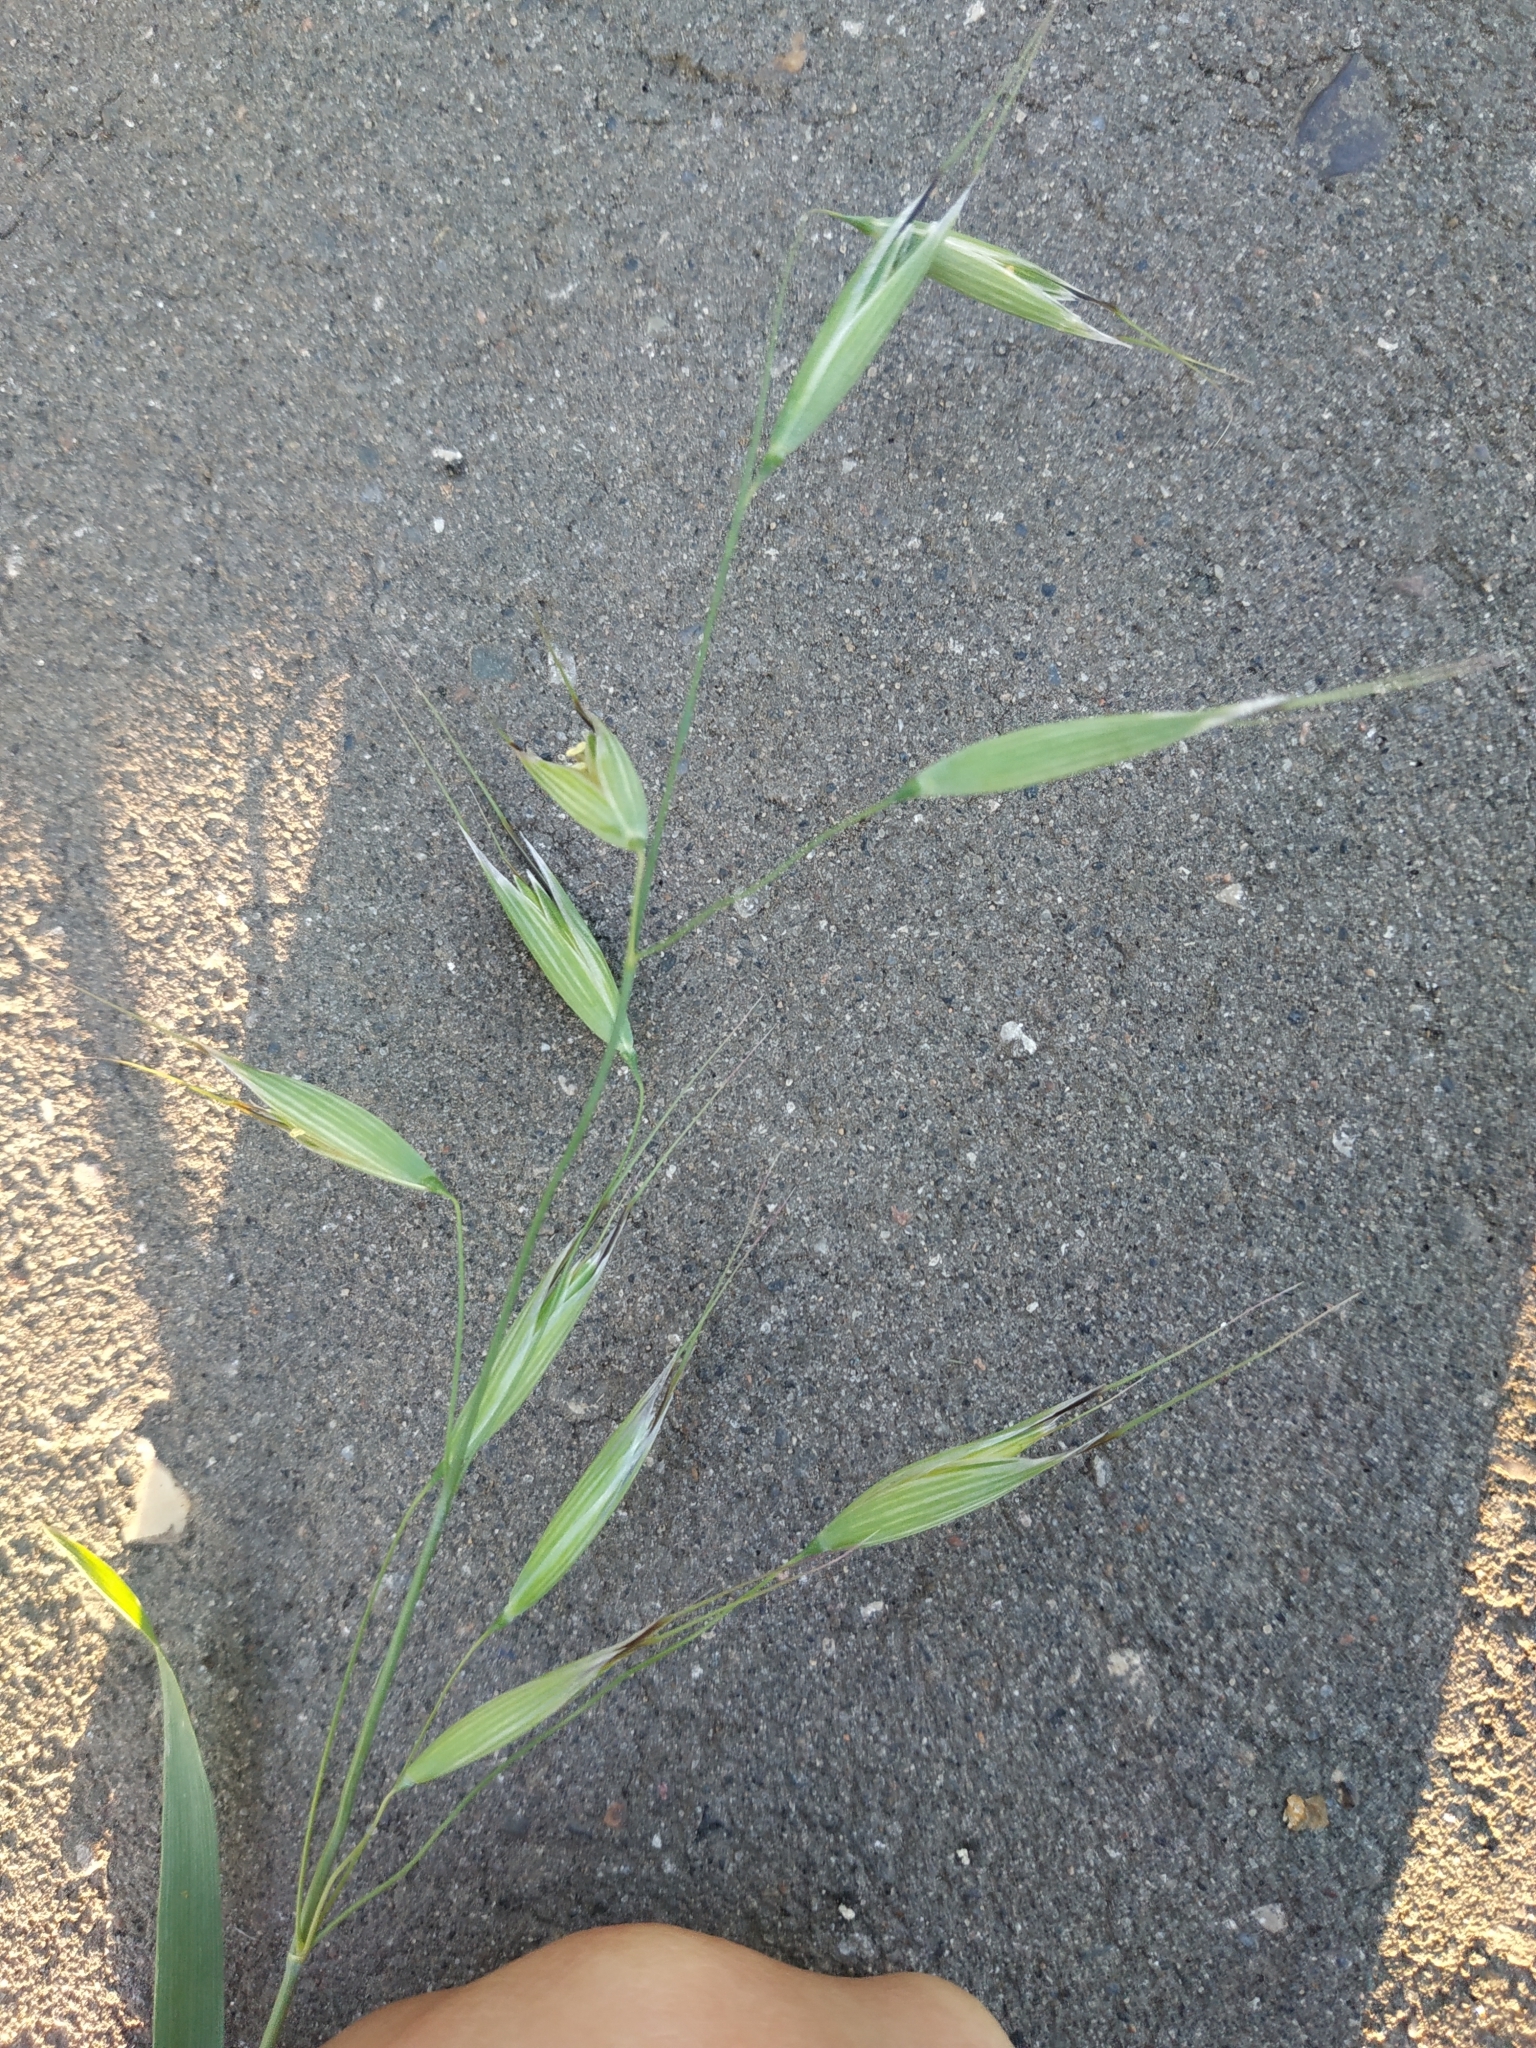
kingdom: Plantae
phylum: Tracheophyta
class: Liliopsida
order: Poales
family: Poaceae
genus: Avena
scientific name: Avena fatua
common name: Wild oat
